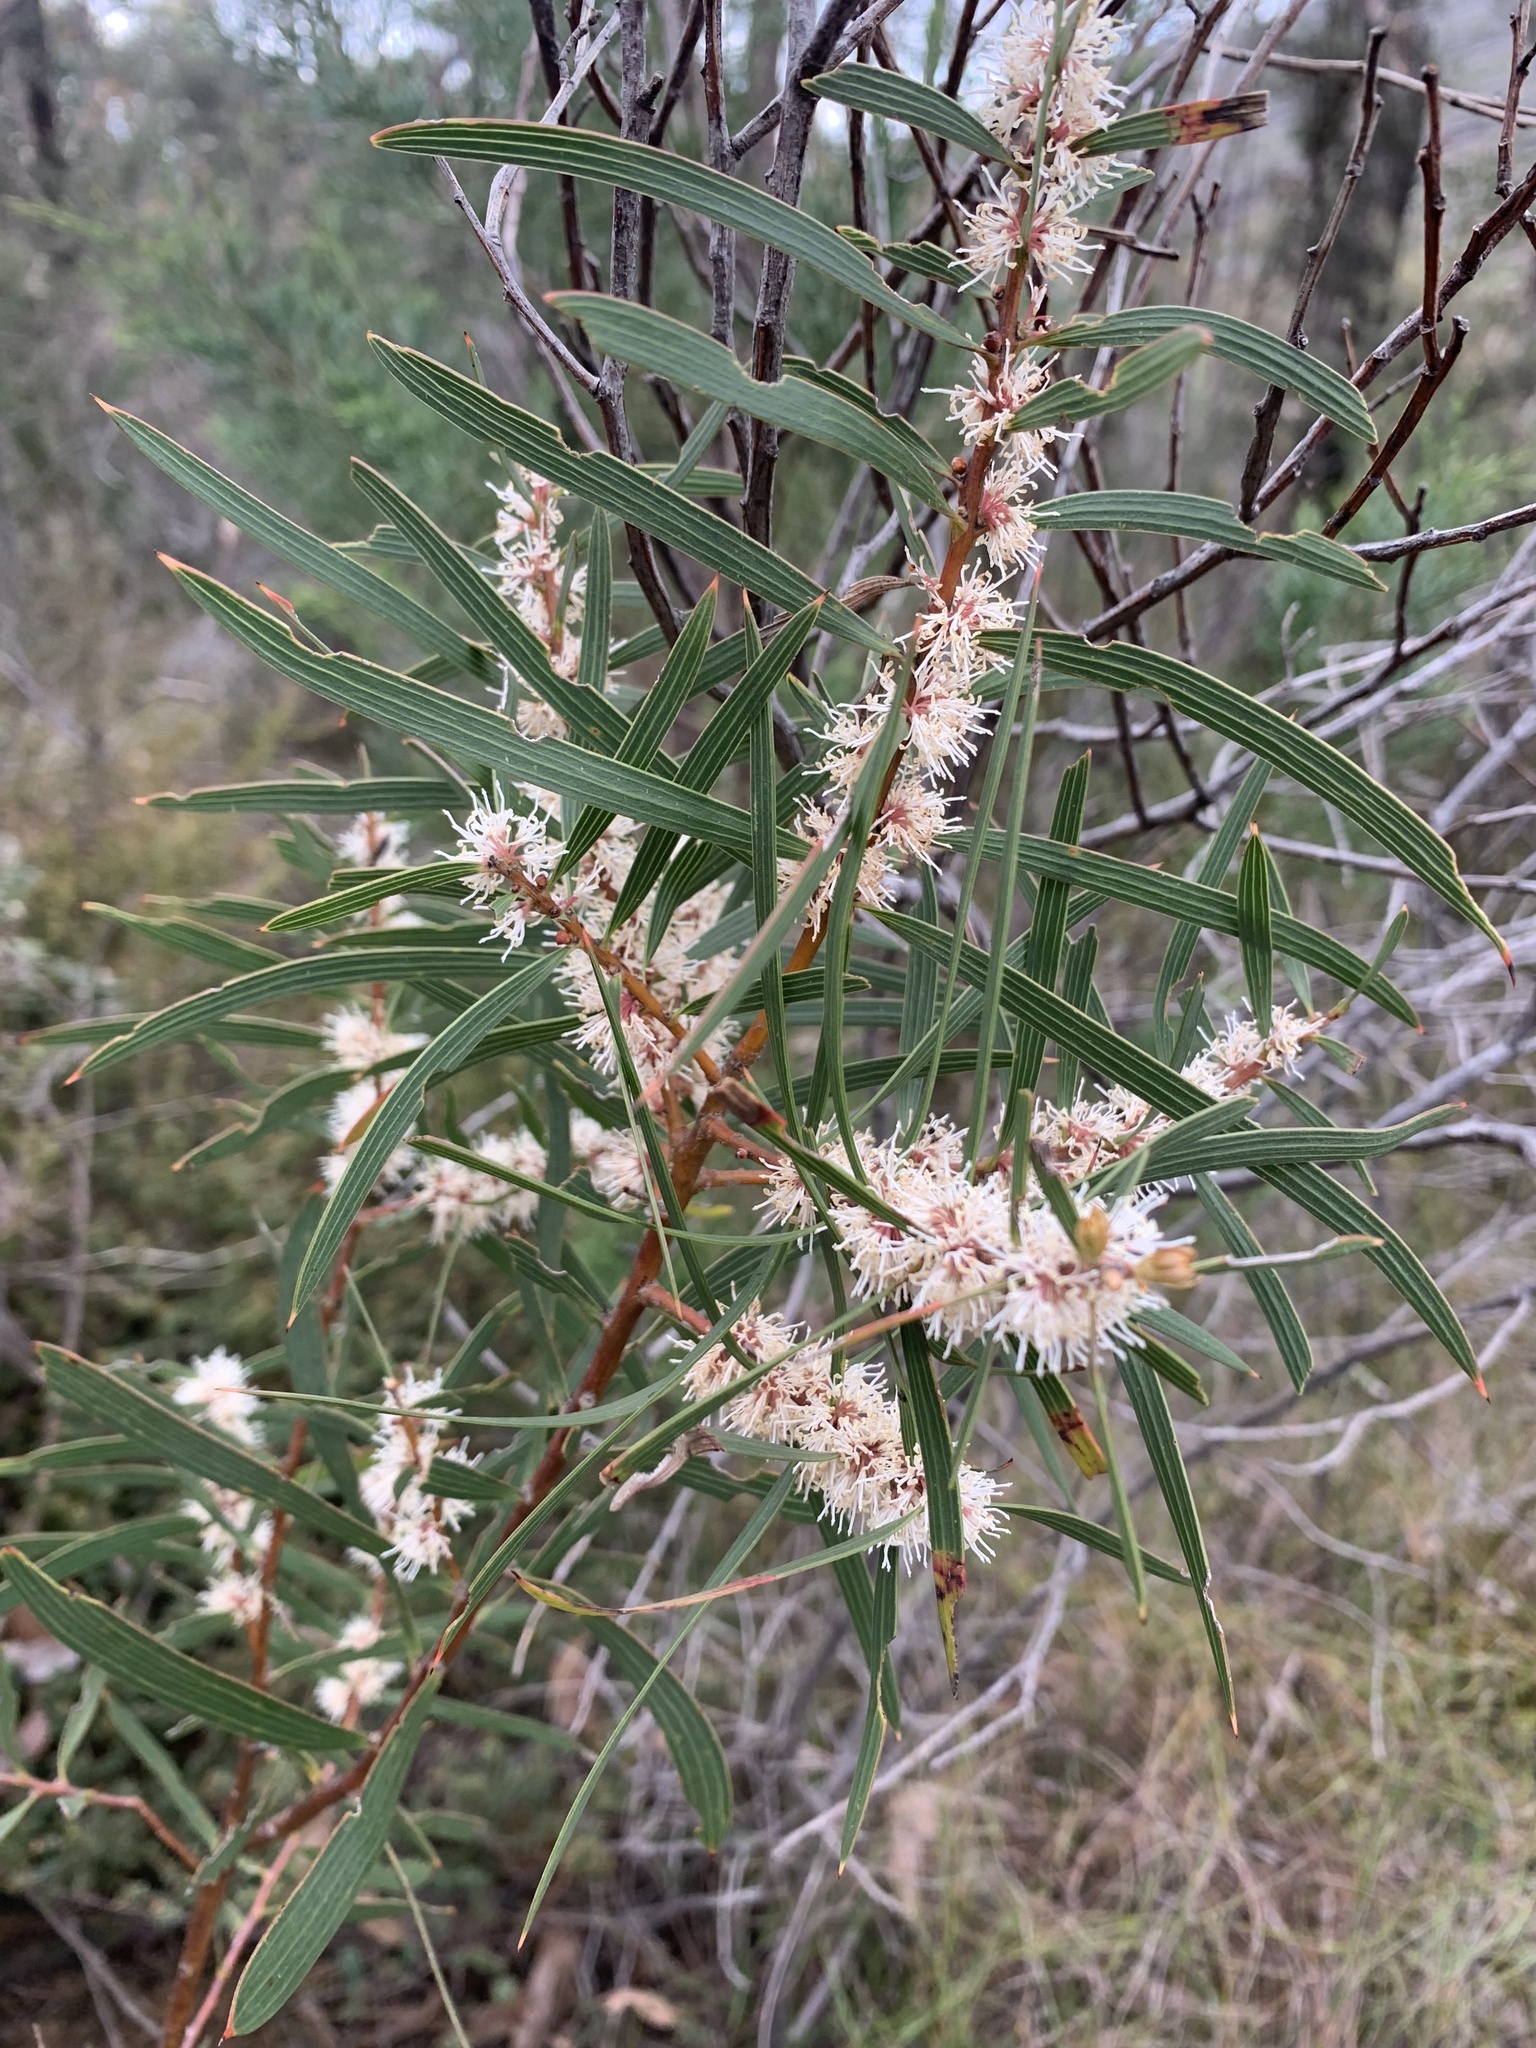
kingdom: Plantae
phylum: Tracheophyta
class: Magnoliopsida
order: Proteales
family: Proteaceae
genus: Hakea
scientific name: Hakea ulicina
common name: Furze hakea
